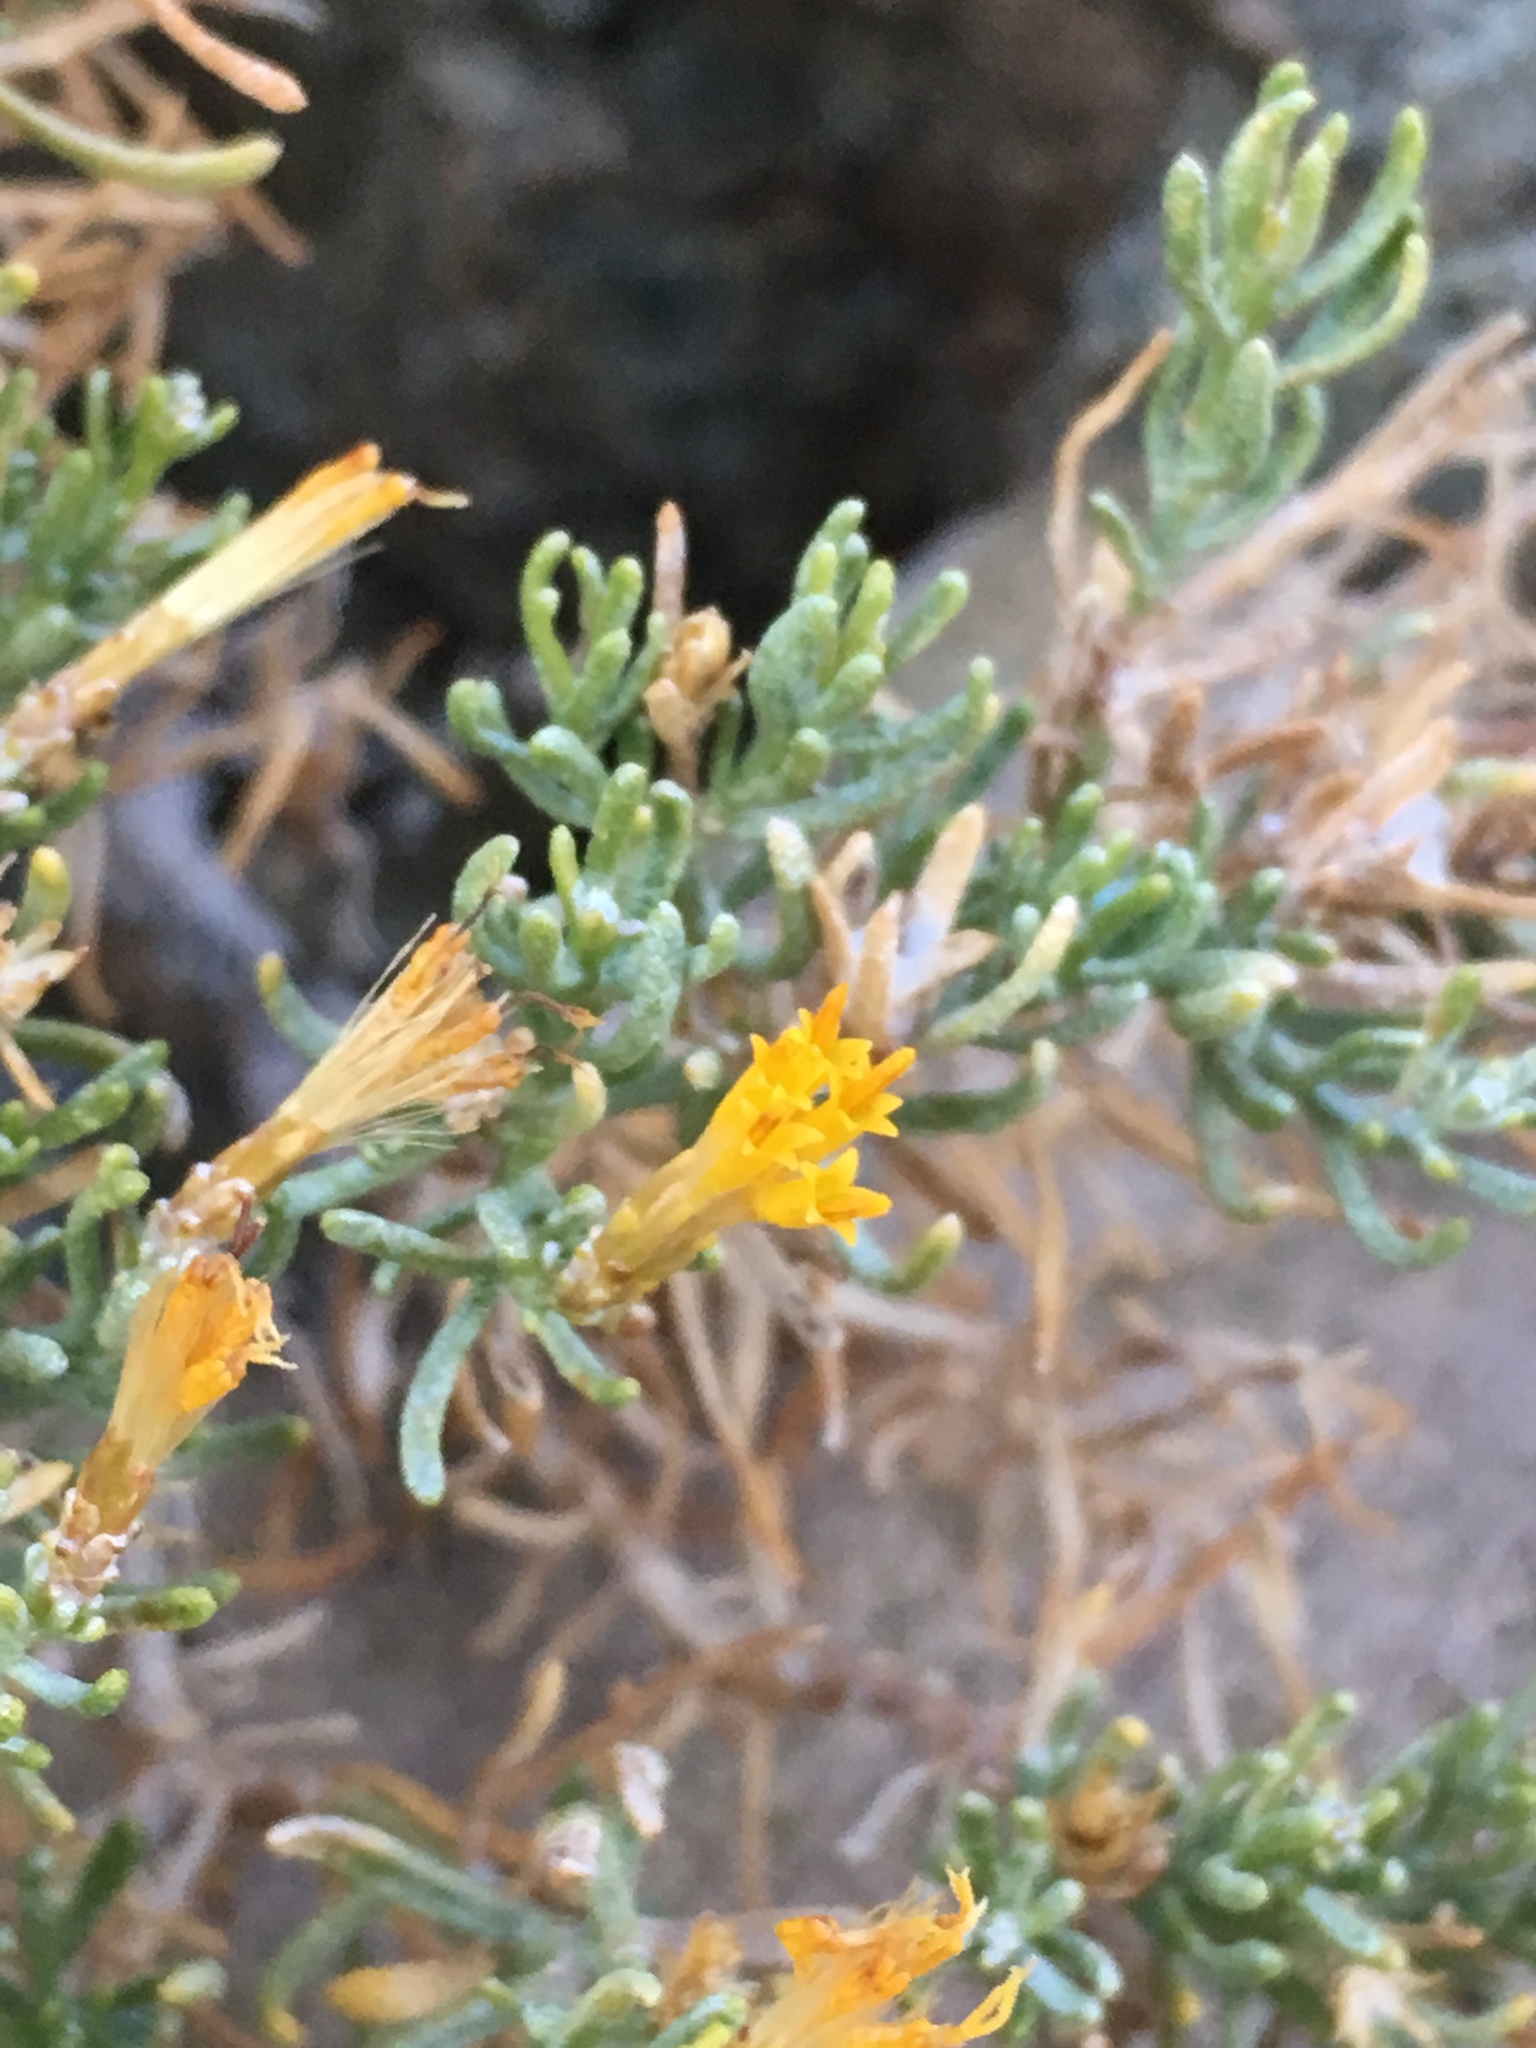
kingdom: Plantae
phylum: Tracheophyta
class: Magnoliopsida
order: Asterales
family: Asteraceae
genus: Ericameria
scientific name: Ericameria teretifolia
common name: Round-leaf rabbitbrush
